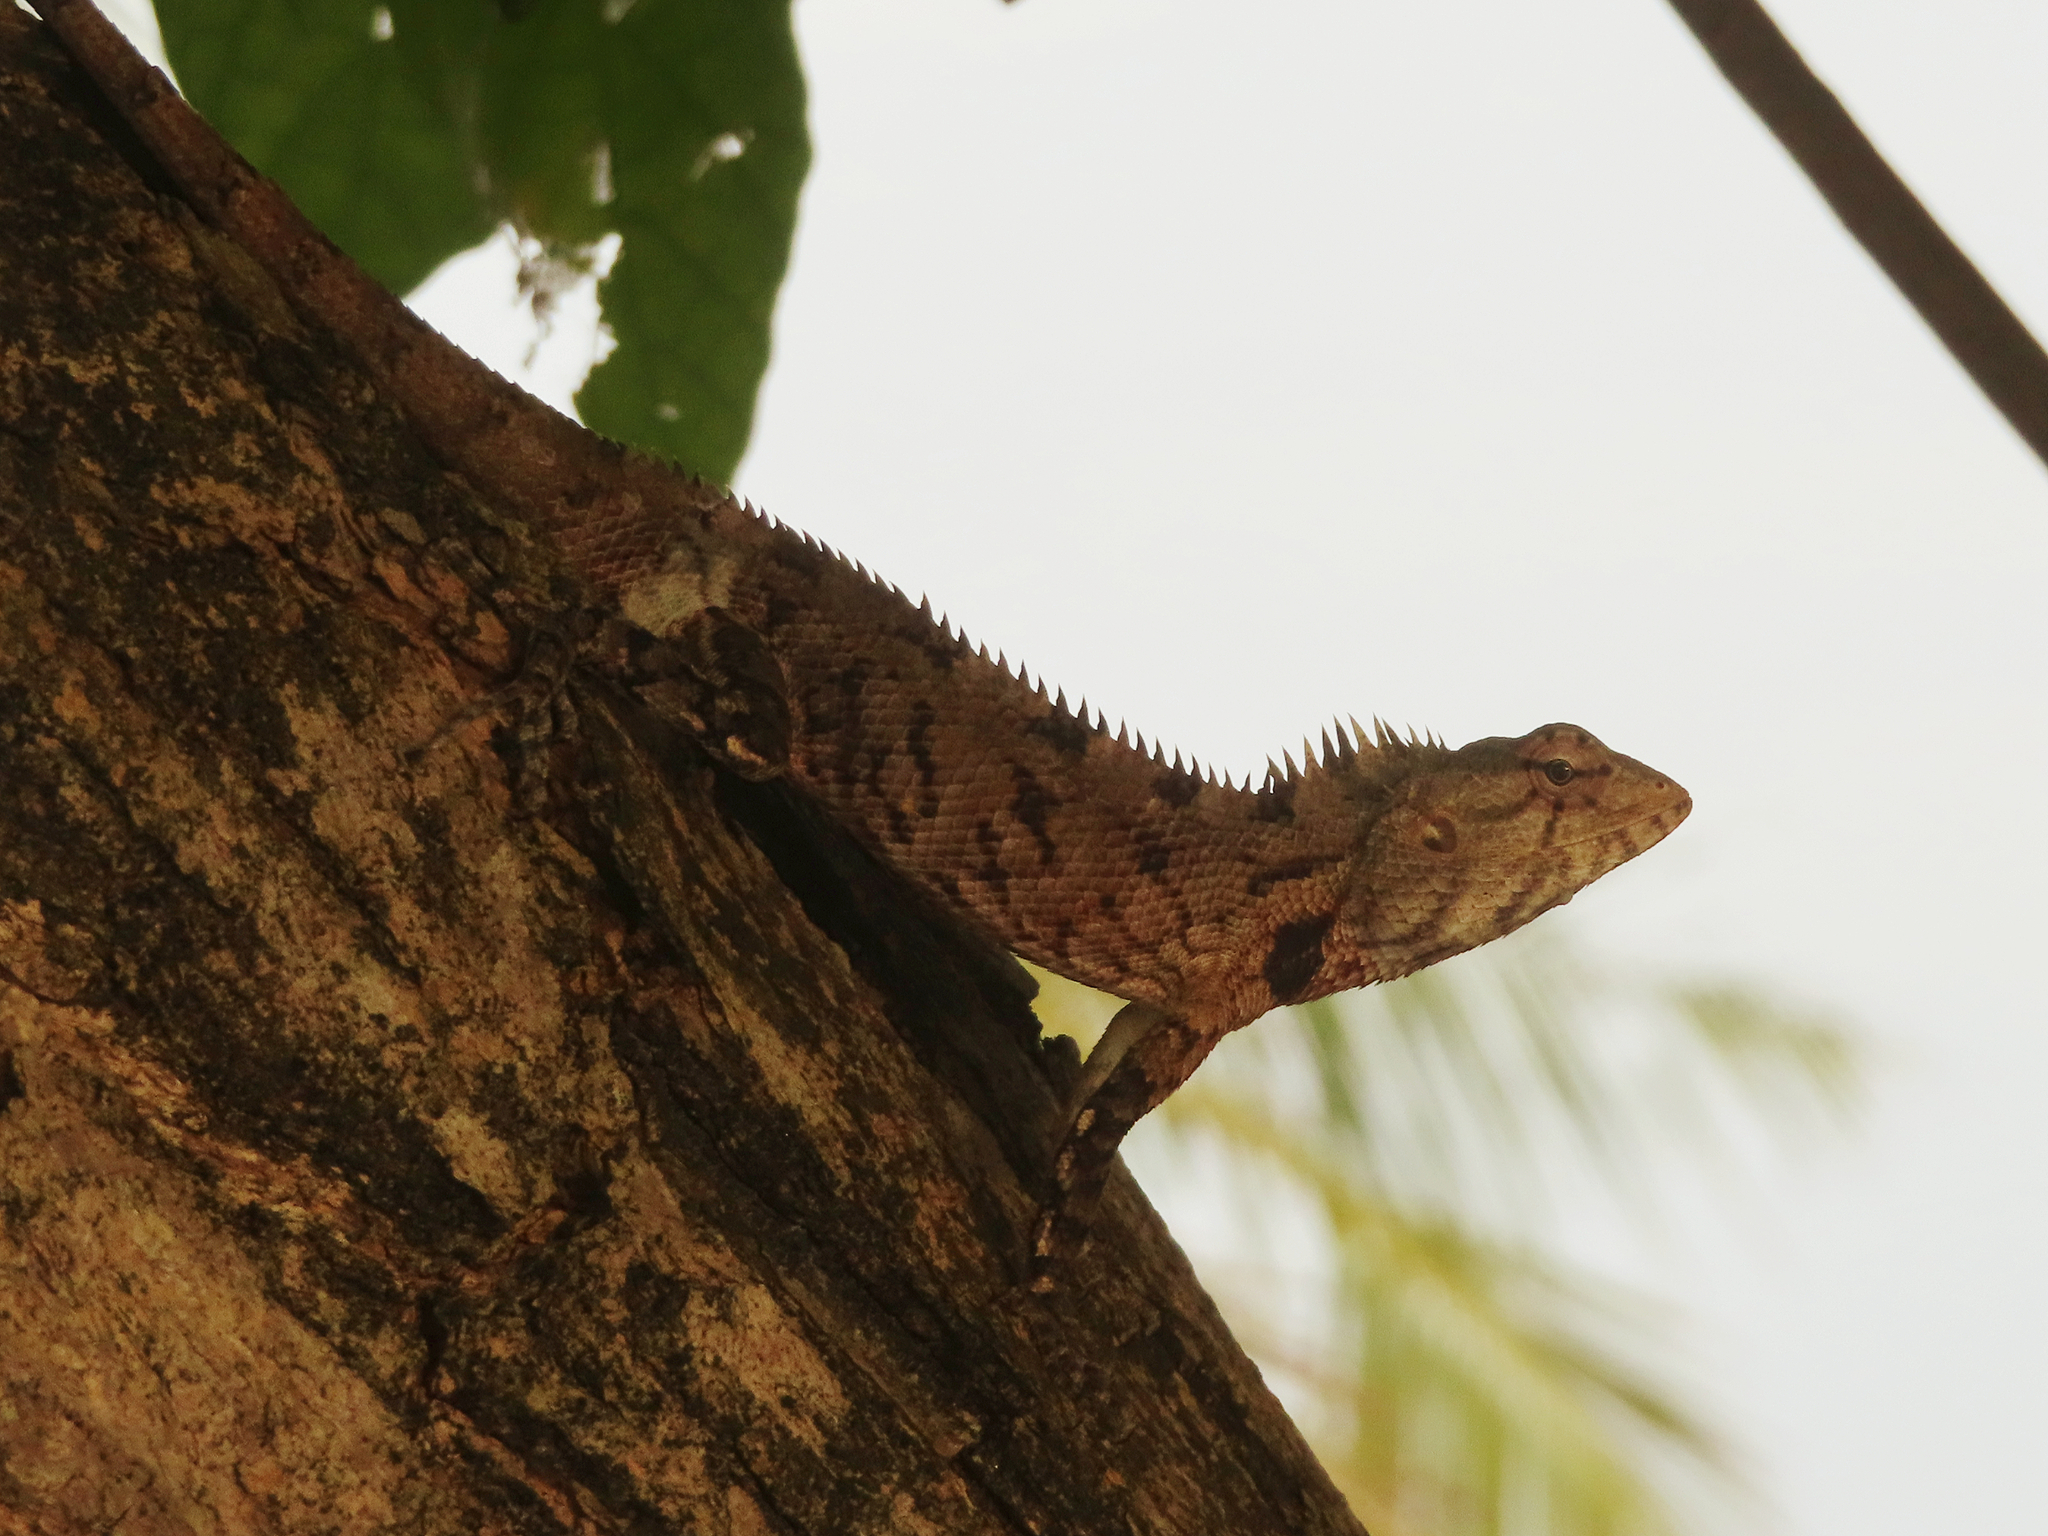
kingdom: Animalia
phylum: Chordata
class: Squamata
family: Agamidae
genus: Calotes
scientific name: Calotes versicolor
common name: Oriental garden lizard
